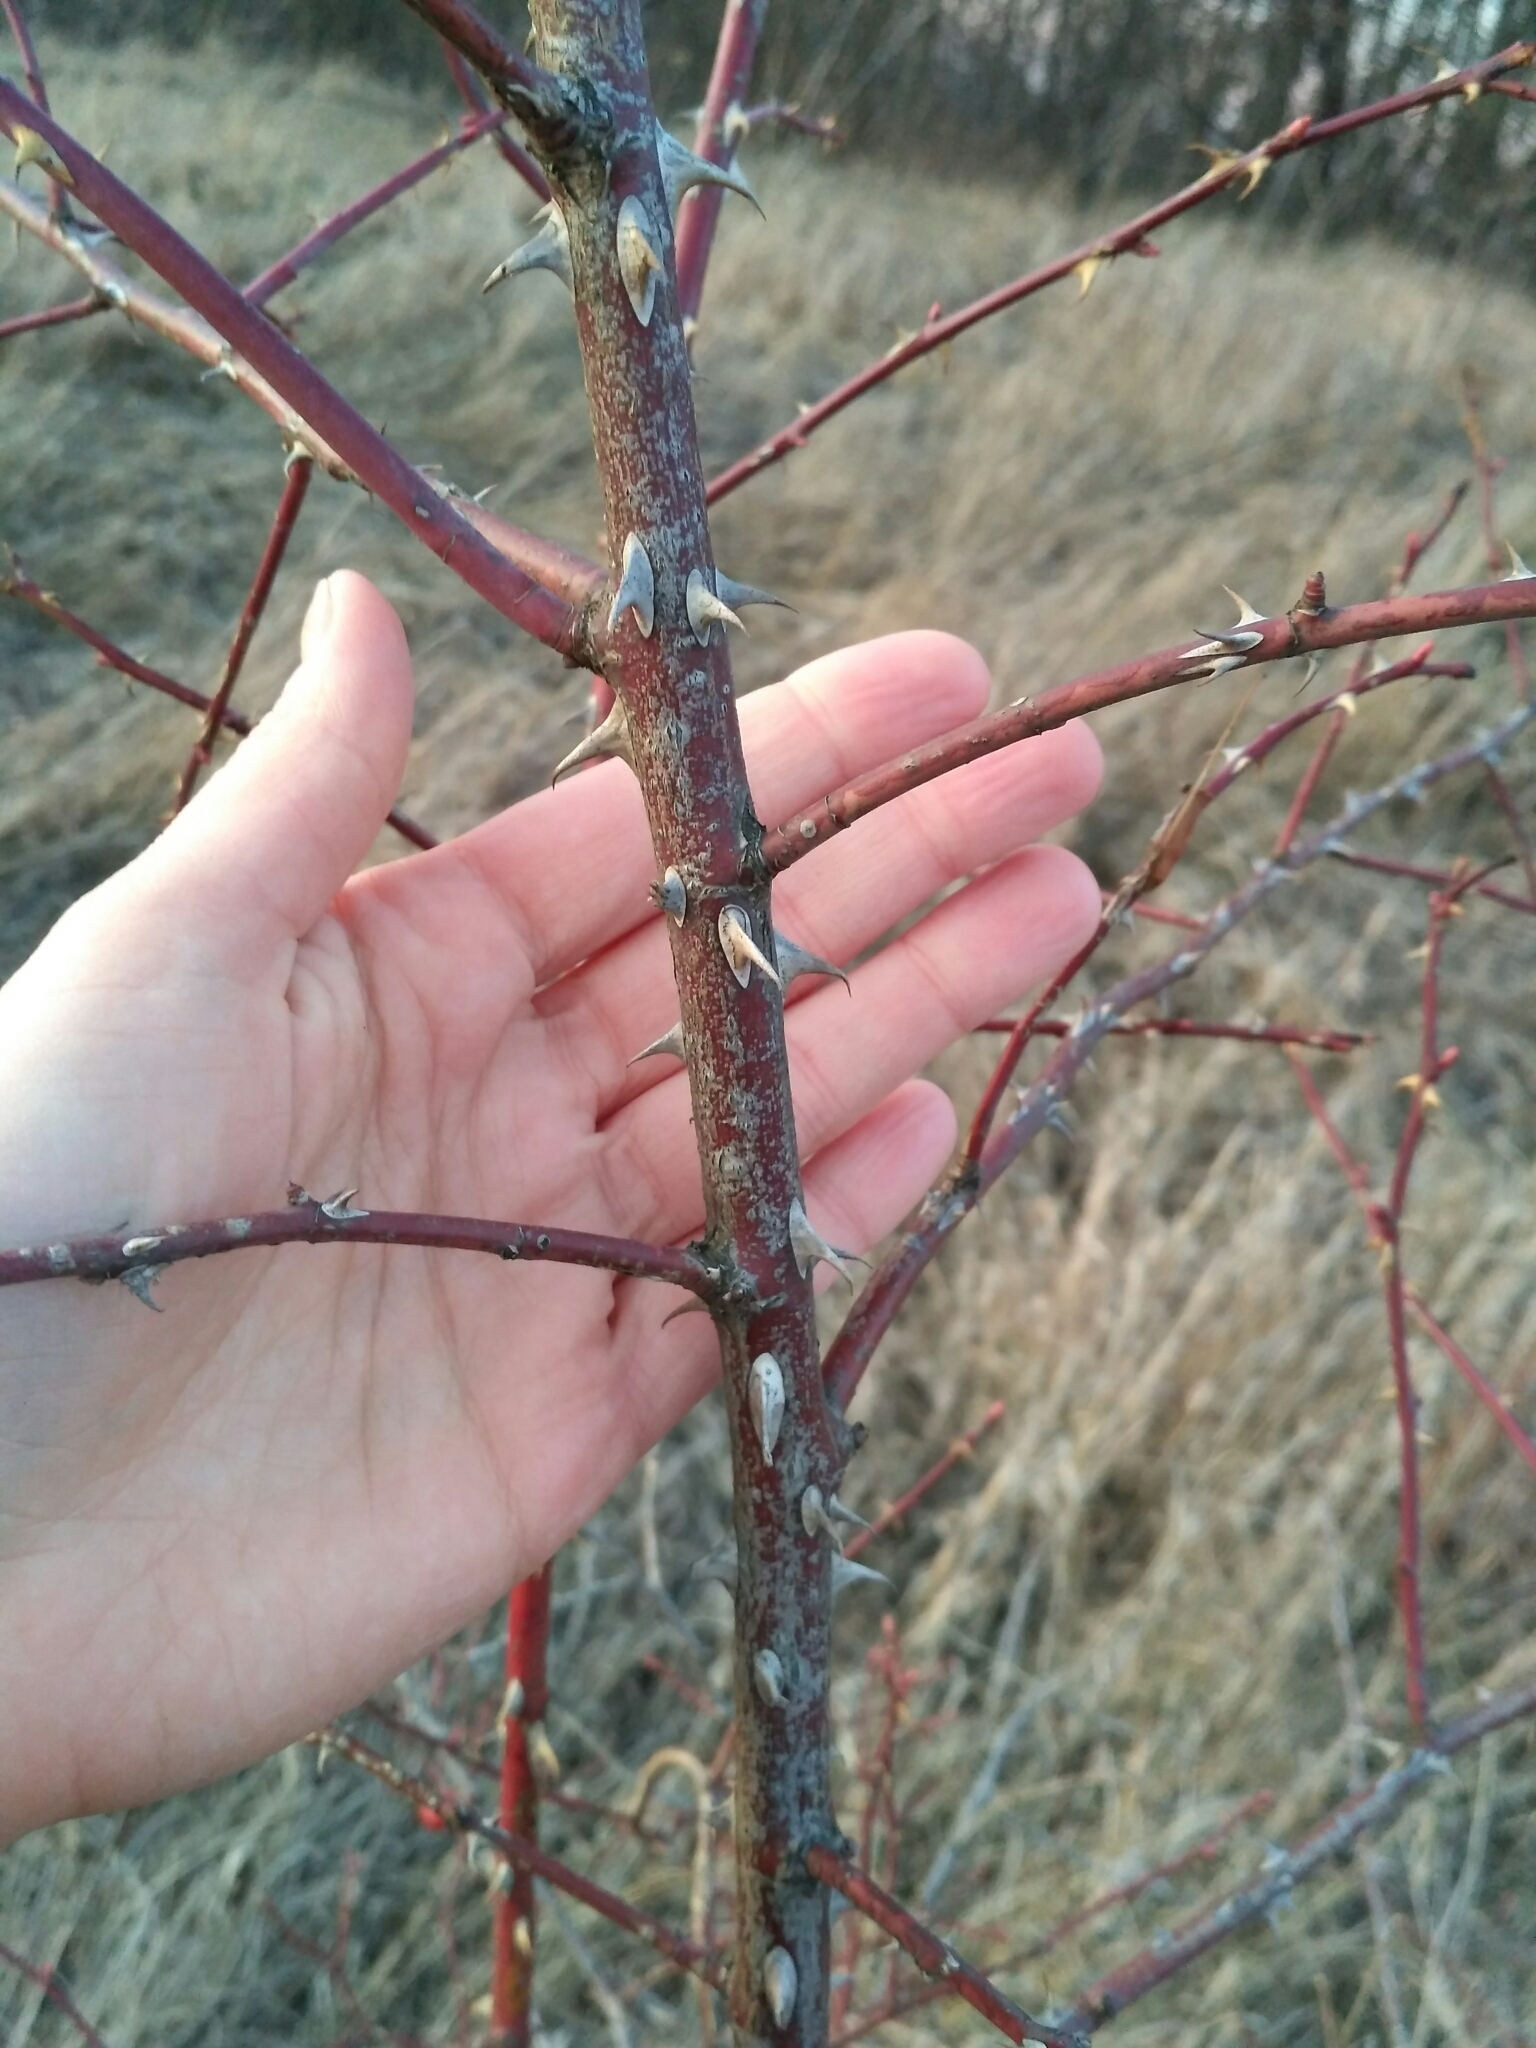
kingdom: Plantae
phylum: Tracheophyta
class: Magnoliopsida
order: Rosales
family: Rosaceae
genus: Rosa
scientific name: Rosa canina
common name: Dog rose
